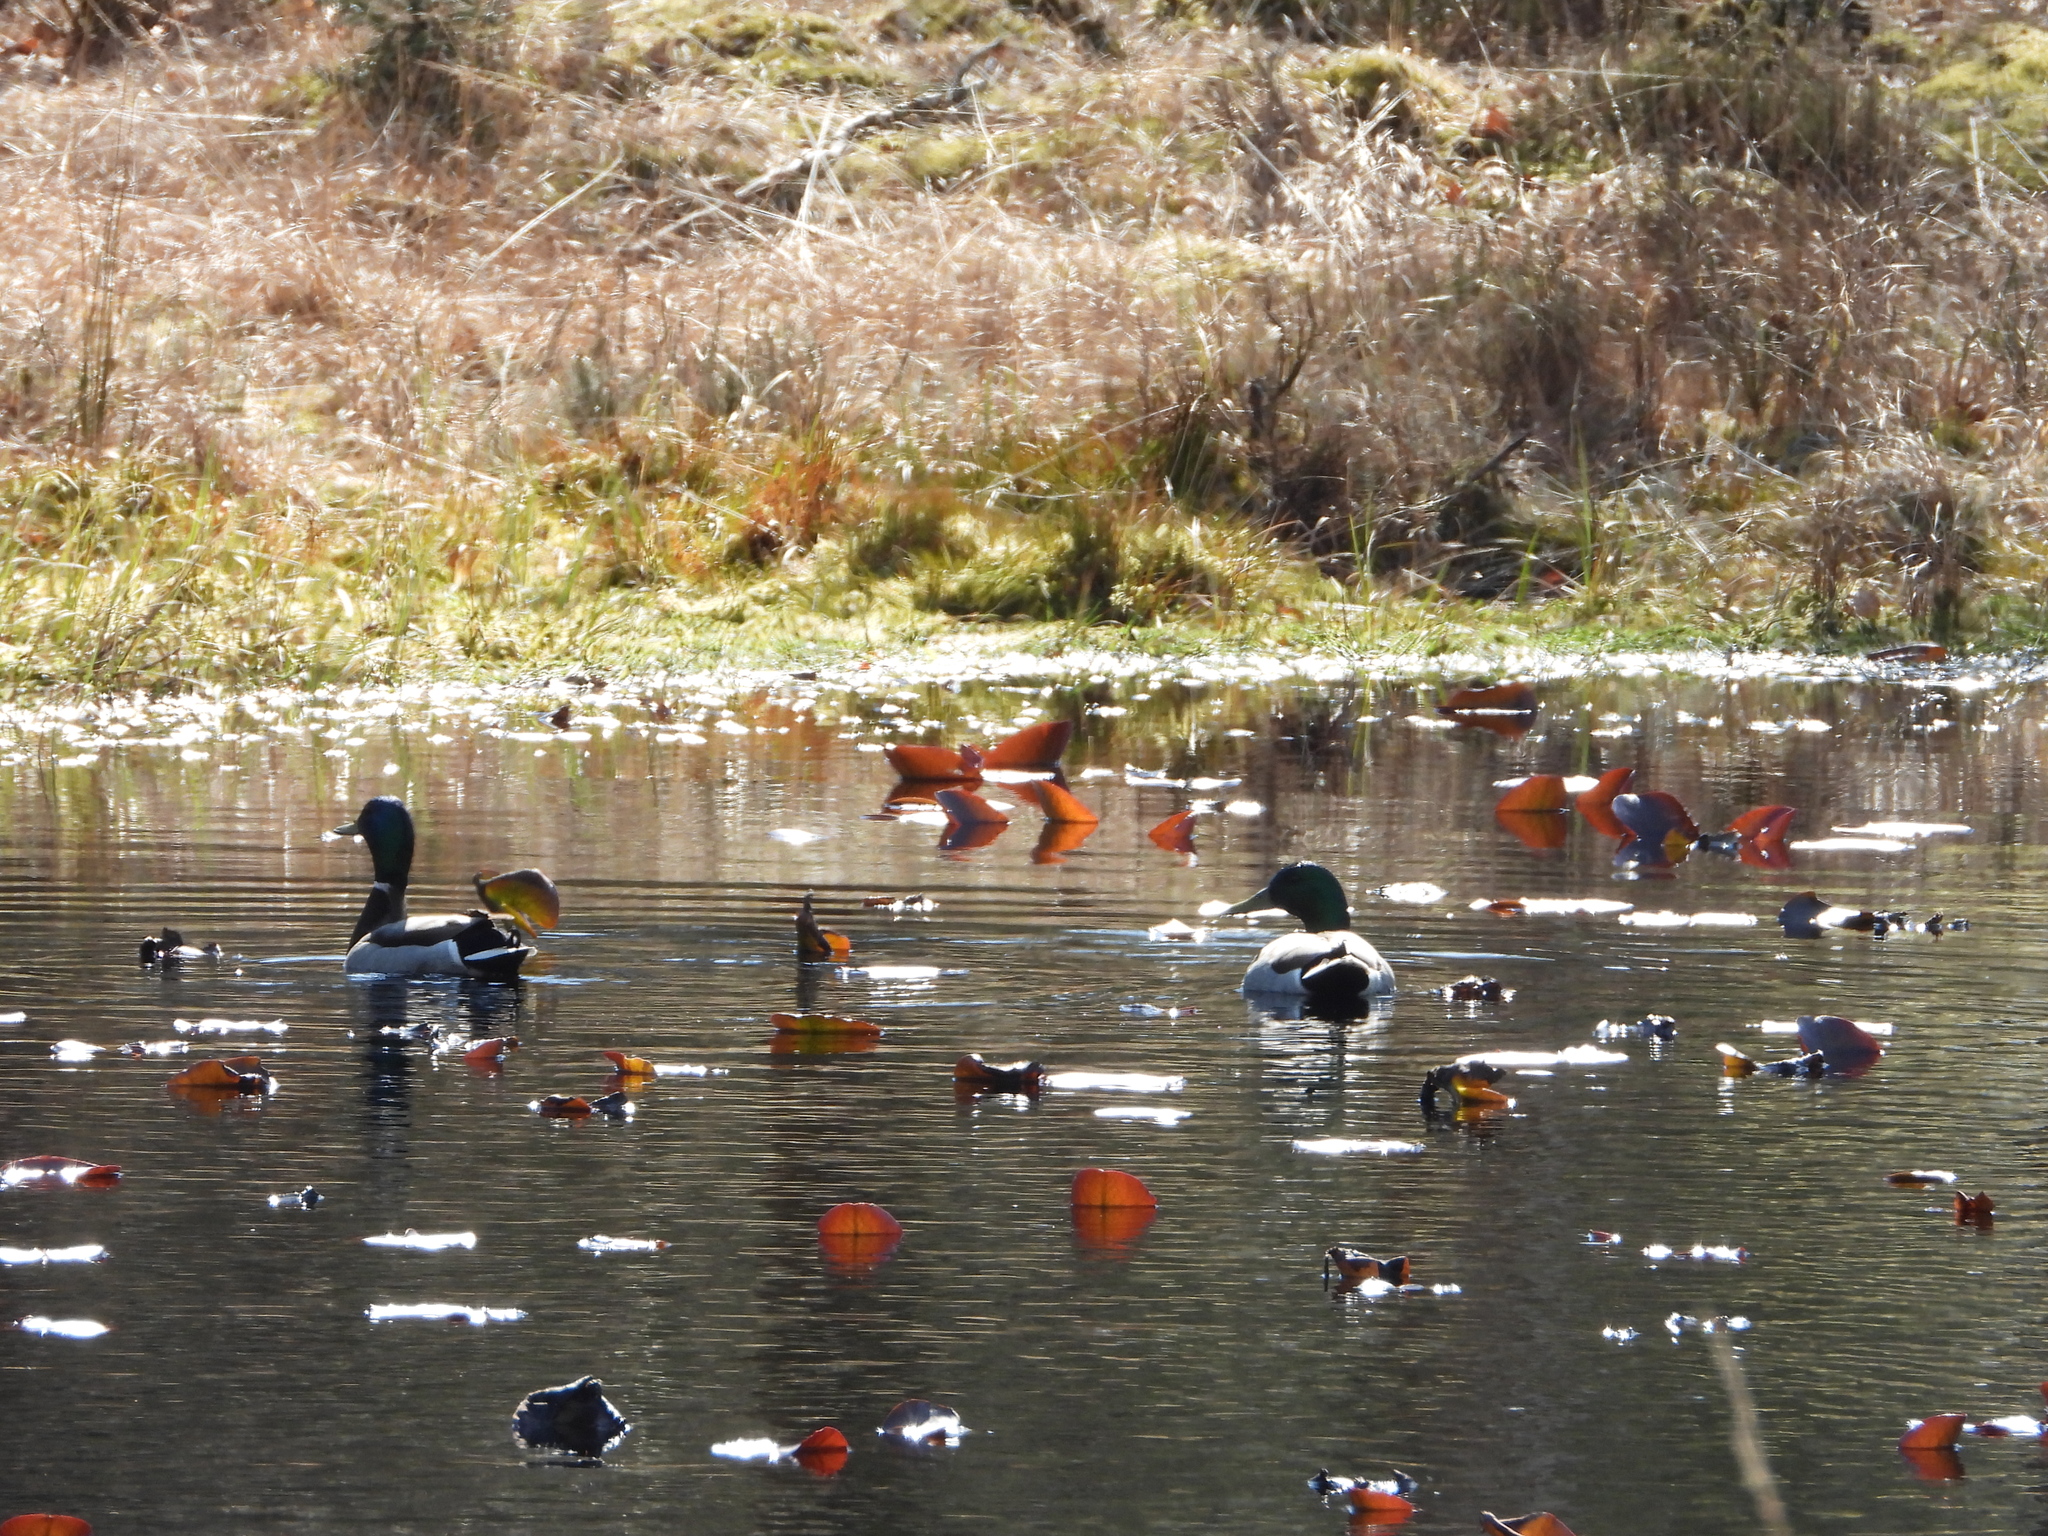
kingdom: Animalia
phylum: Chordata
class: Aves
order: Anseriformes
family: Anatidae
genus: Anas
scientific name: Anas platyrhynchos
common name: Mallard
